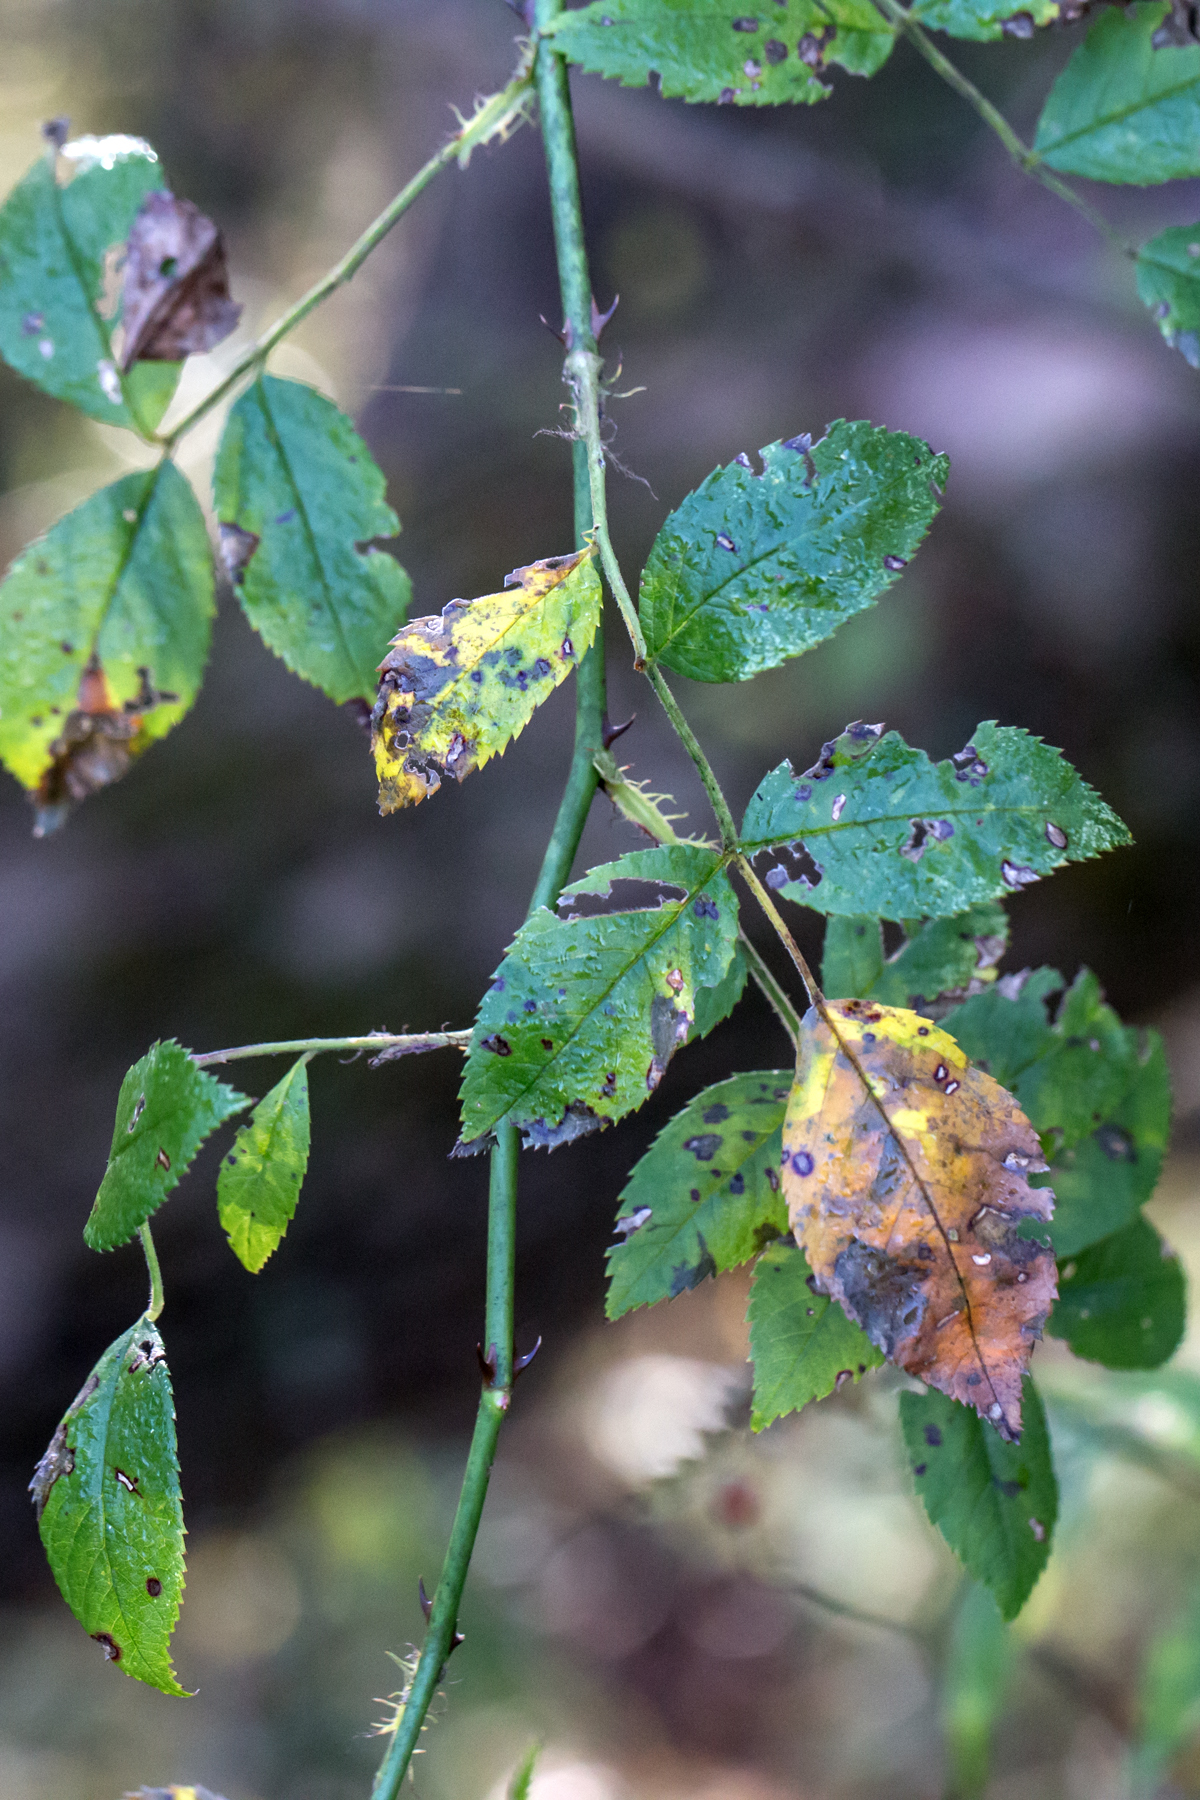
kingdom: Plantae
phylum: Tracheophyta
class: Magnoliopsida
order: Rosales
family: Rosaceae
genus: Rosa
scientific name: Rosa multiflora
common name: Multiflora rose
